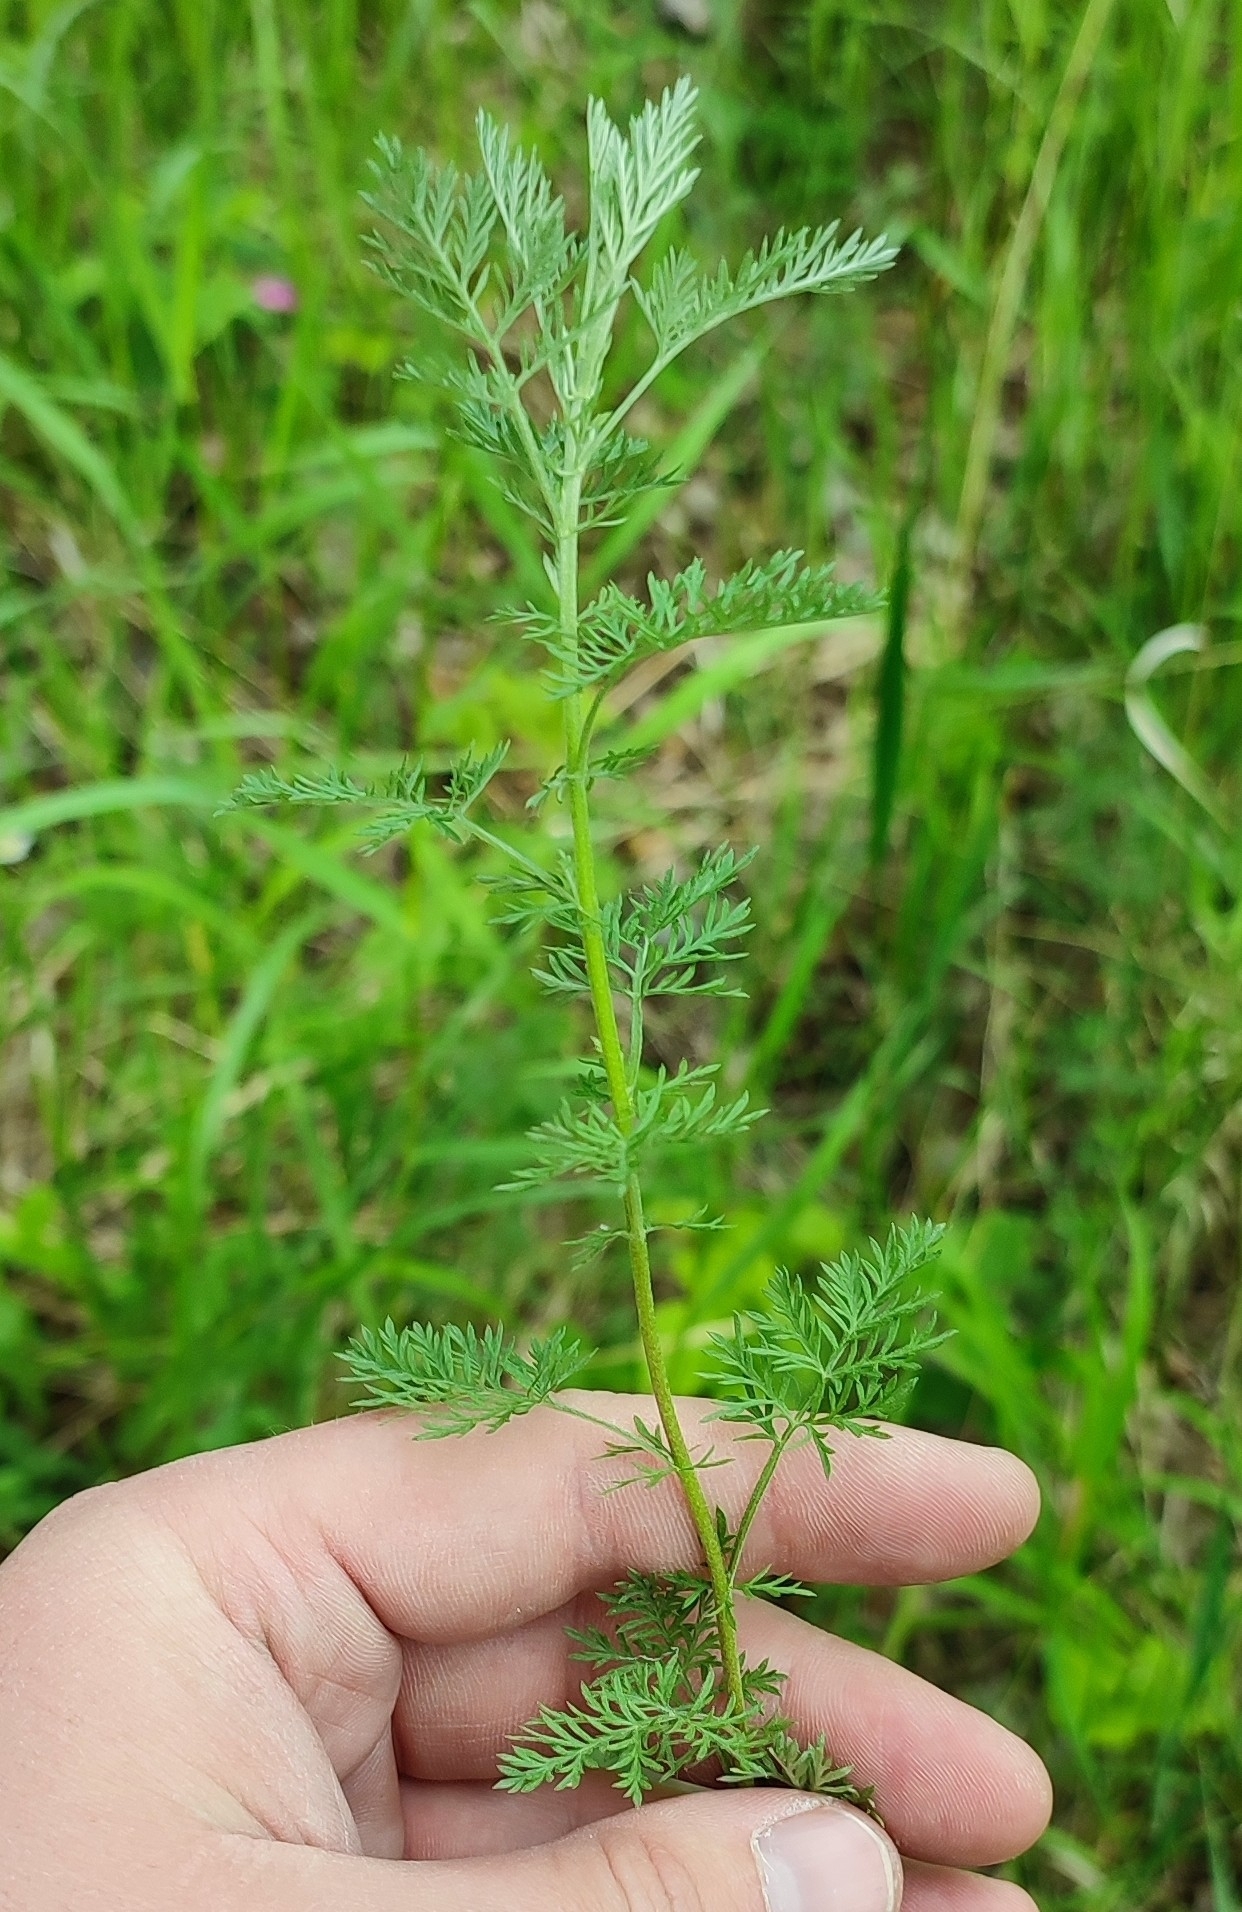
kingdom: Plantae
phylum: Tracheophyta
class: Magnoliopsida
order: Asterales
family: Asteraceae
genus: Artemisia
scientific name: Artemisia macrantha
